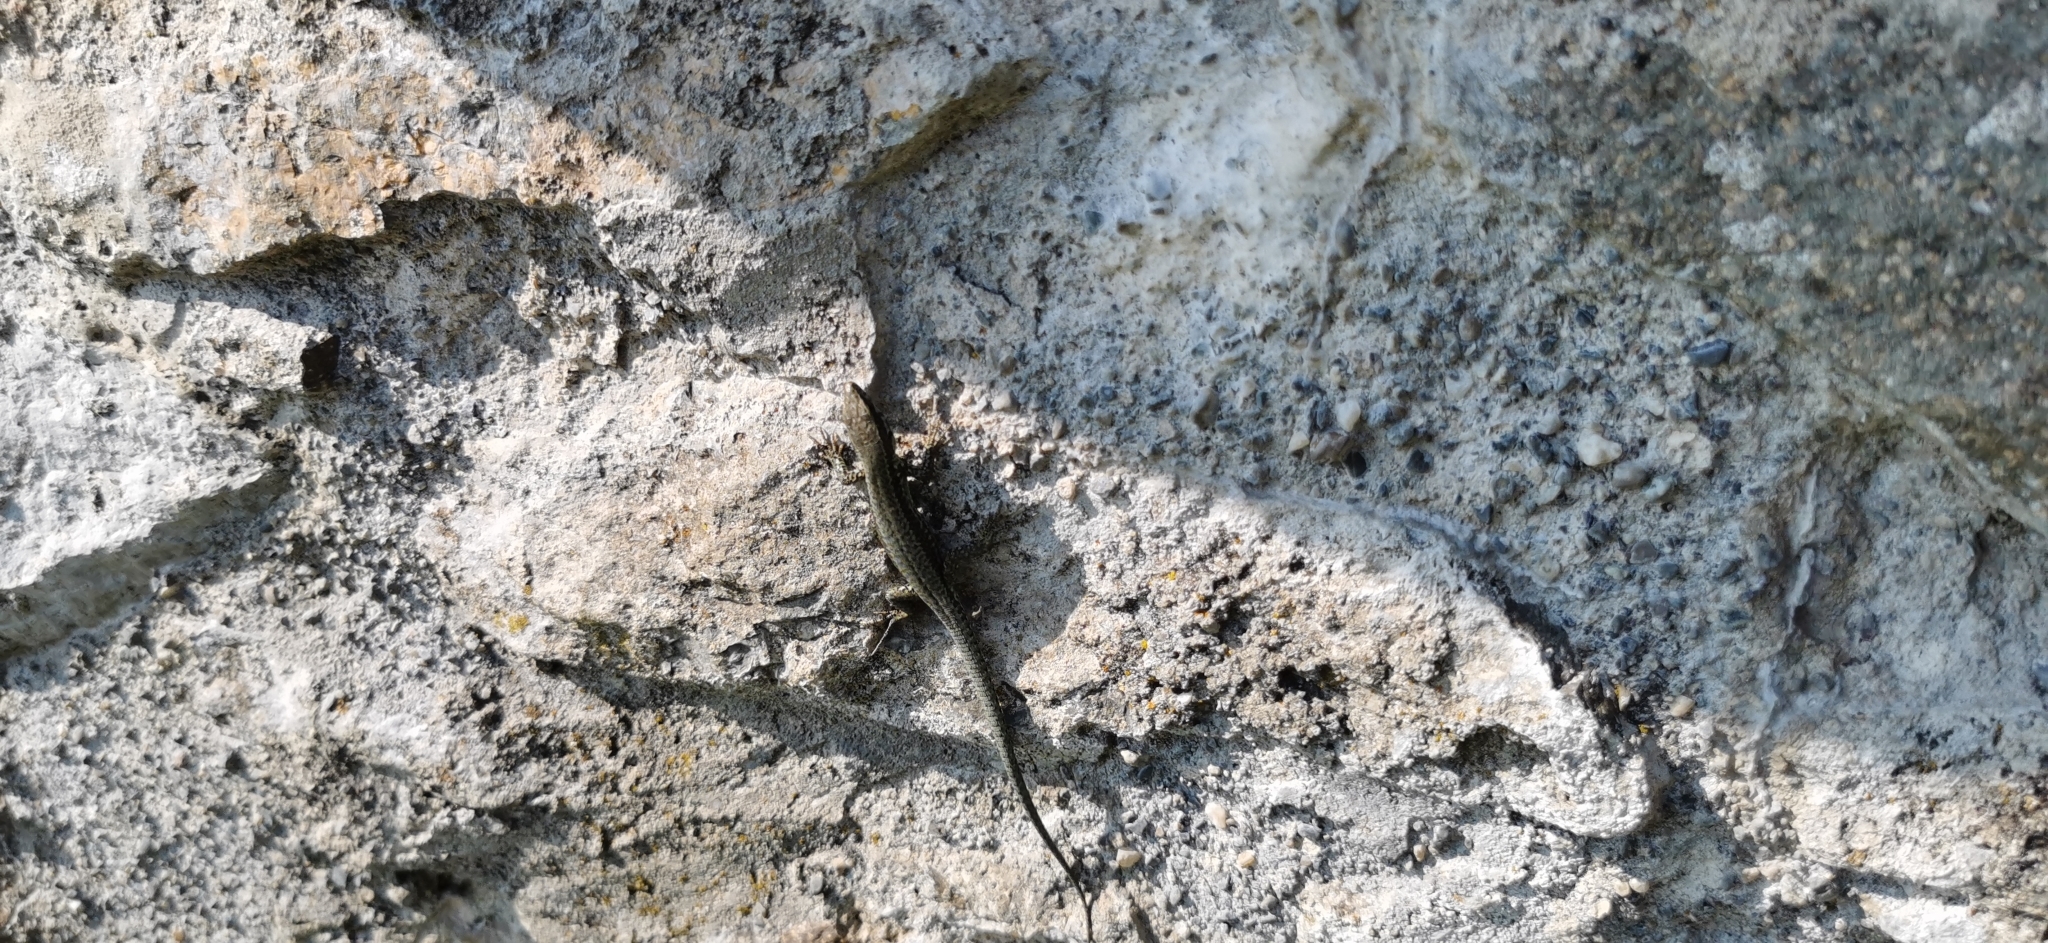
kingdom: Animalia
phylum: Chordata
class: Squamata
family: Lacertidae
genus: Podarcis
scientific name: Podarcis muralis
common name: Common wall lizard
